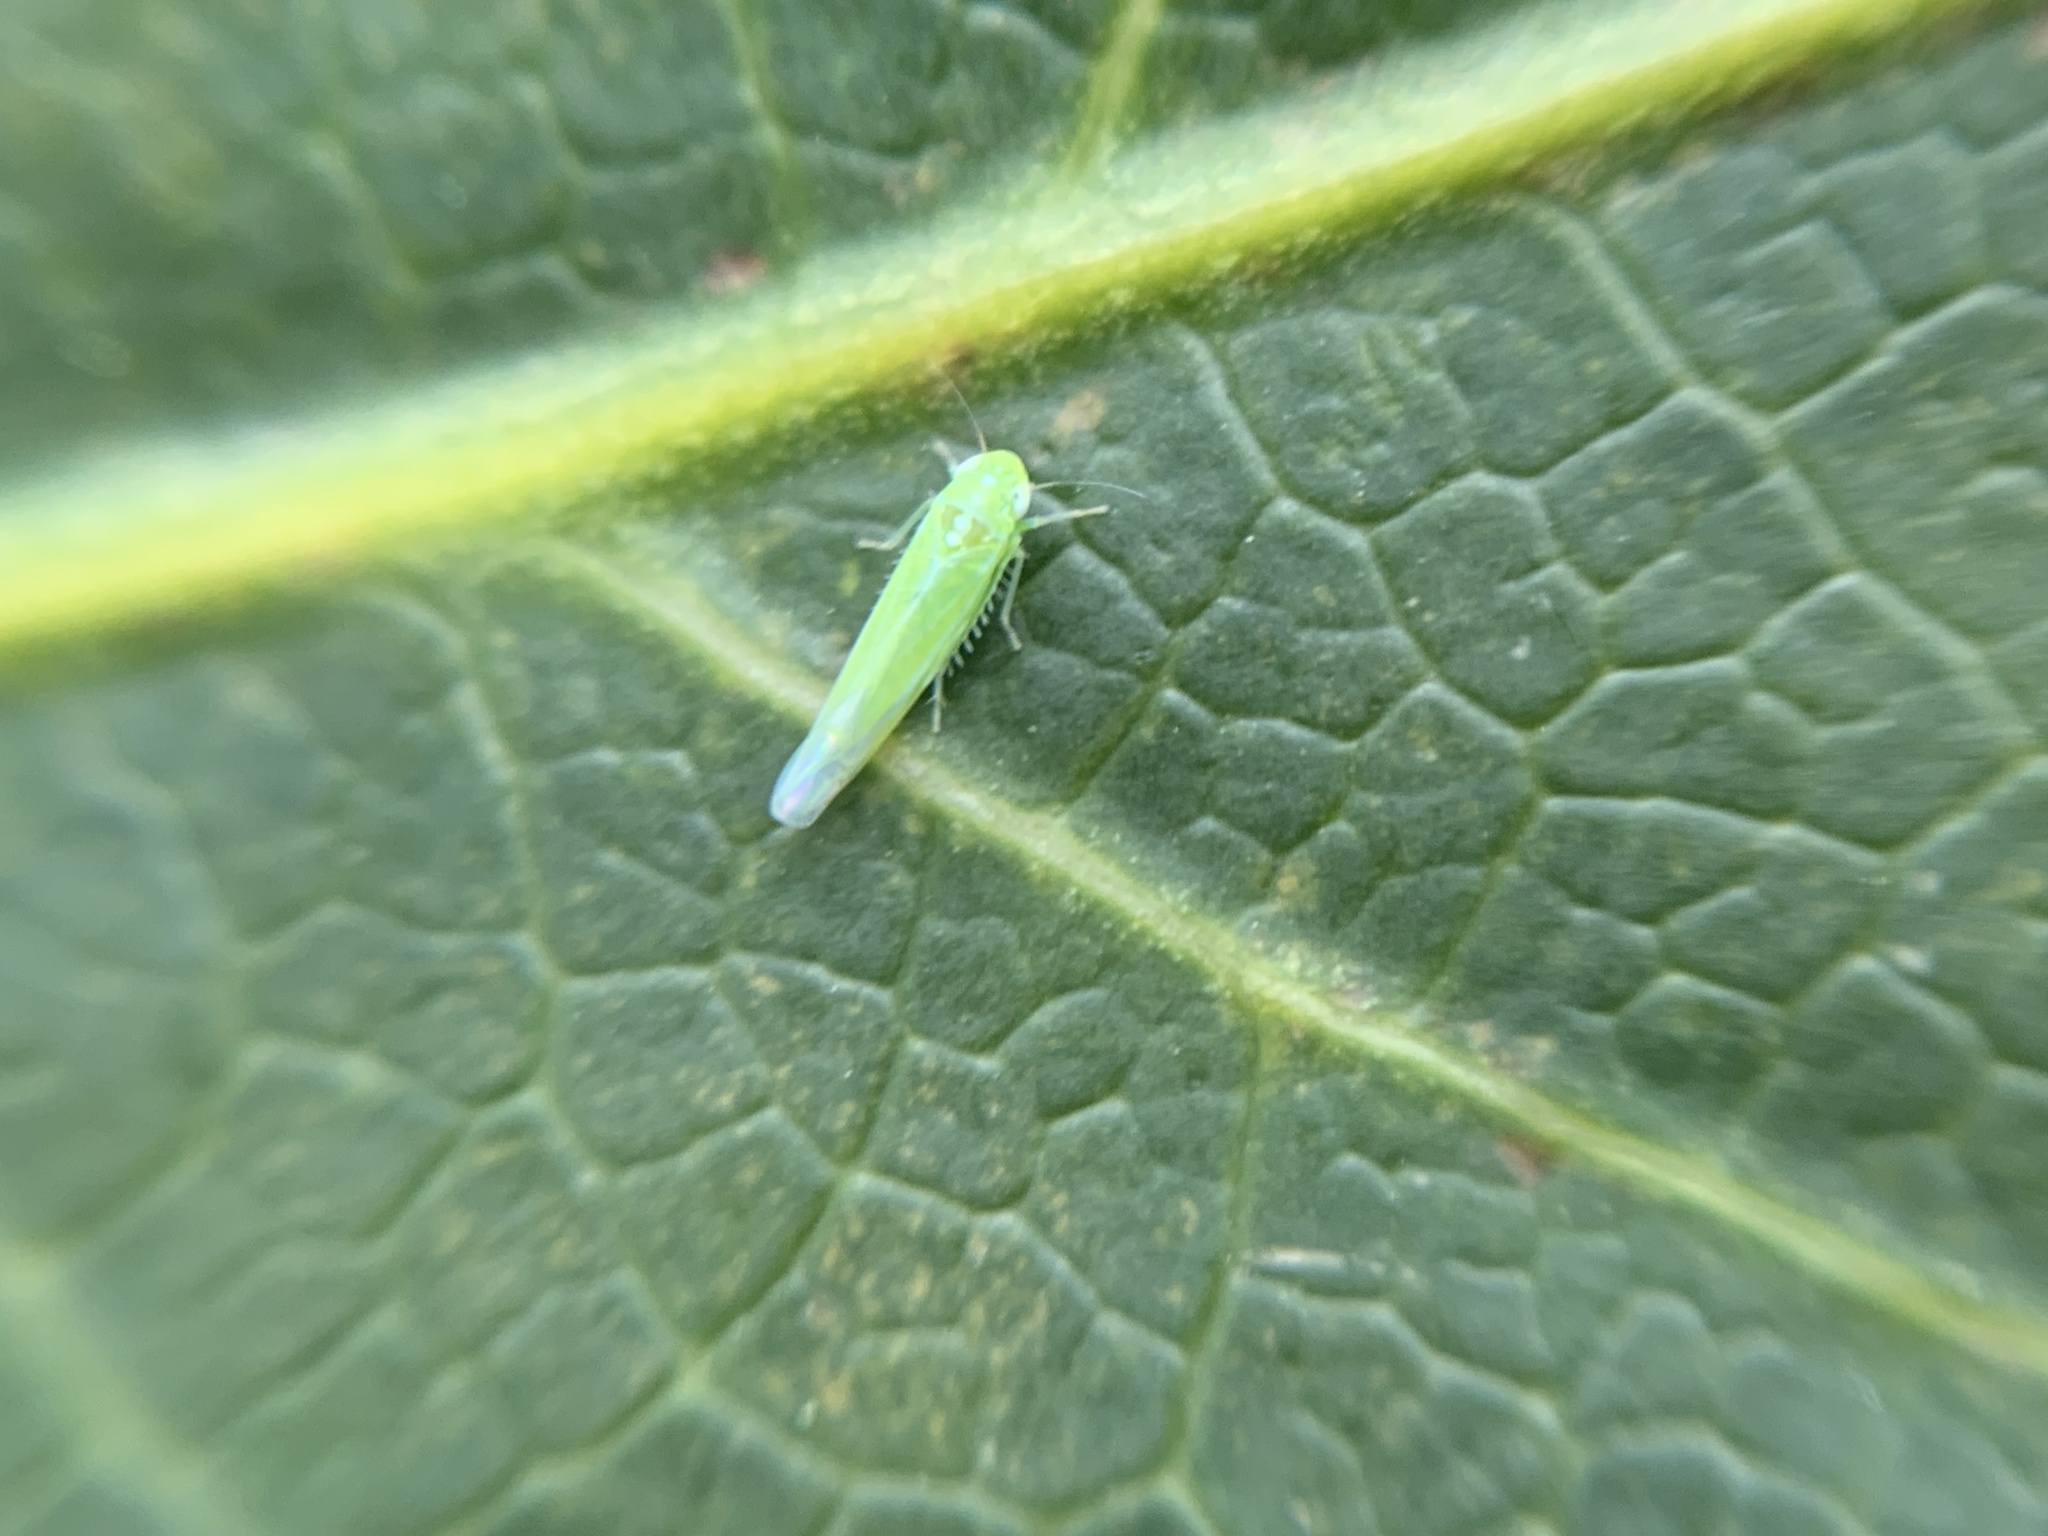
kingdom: Animalia
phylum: Arthropoda
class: Insecta
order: Hemiptera
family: Cicadellidae
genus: Hebata
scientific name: Hebata vitis
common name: The smaller green leafhopper
